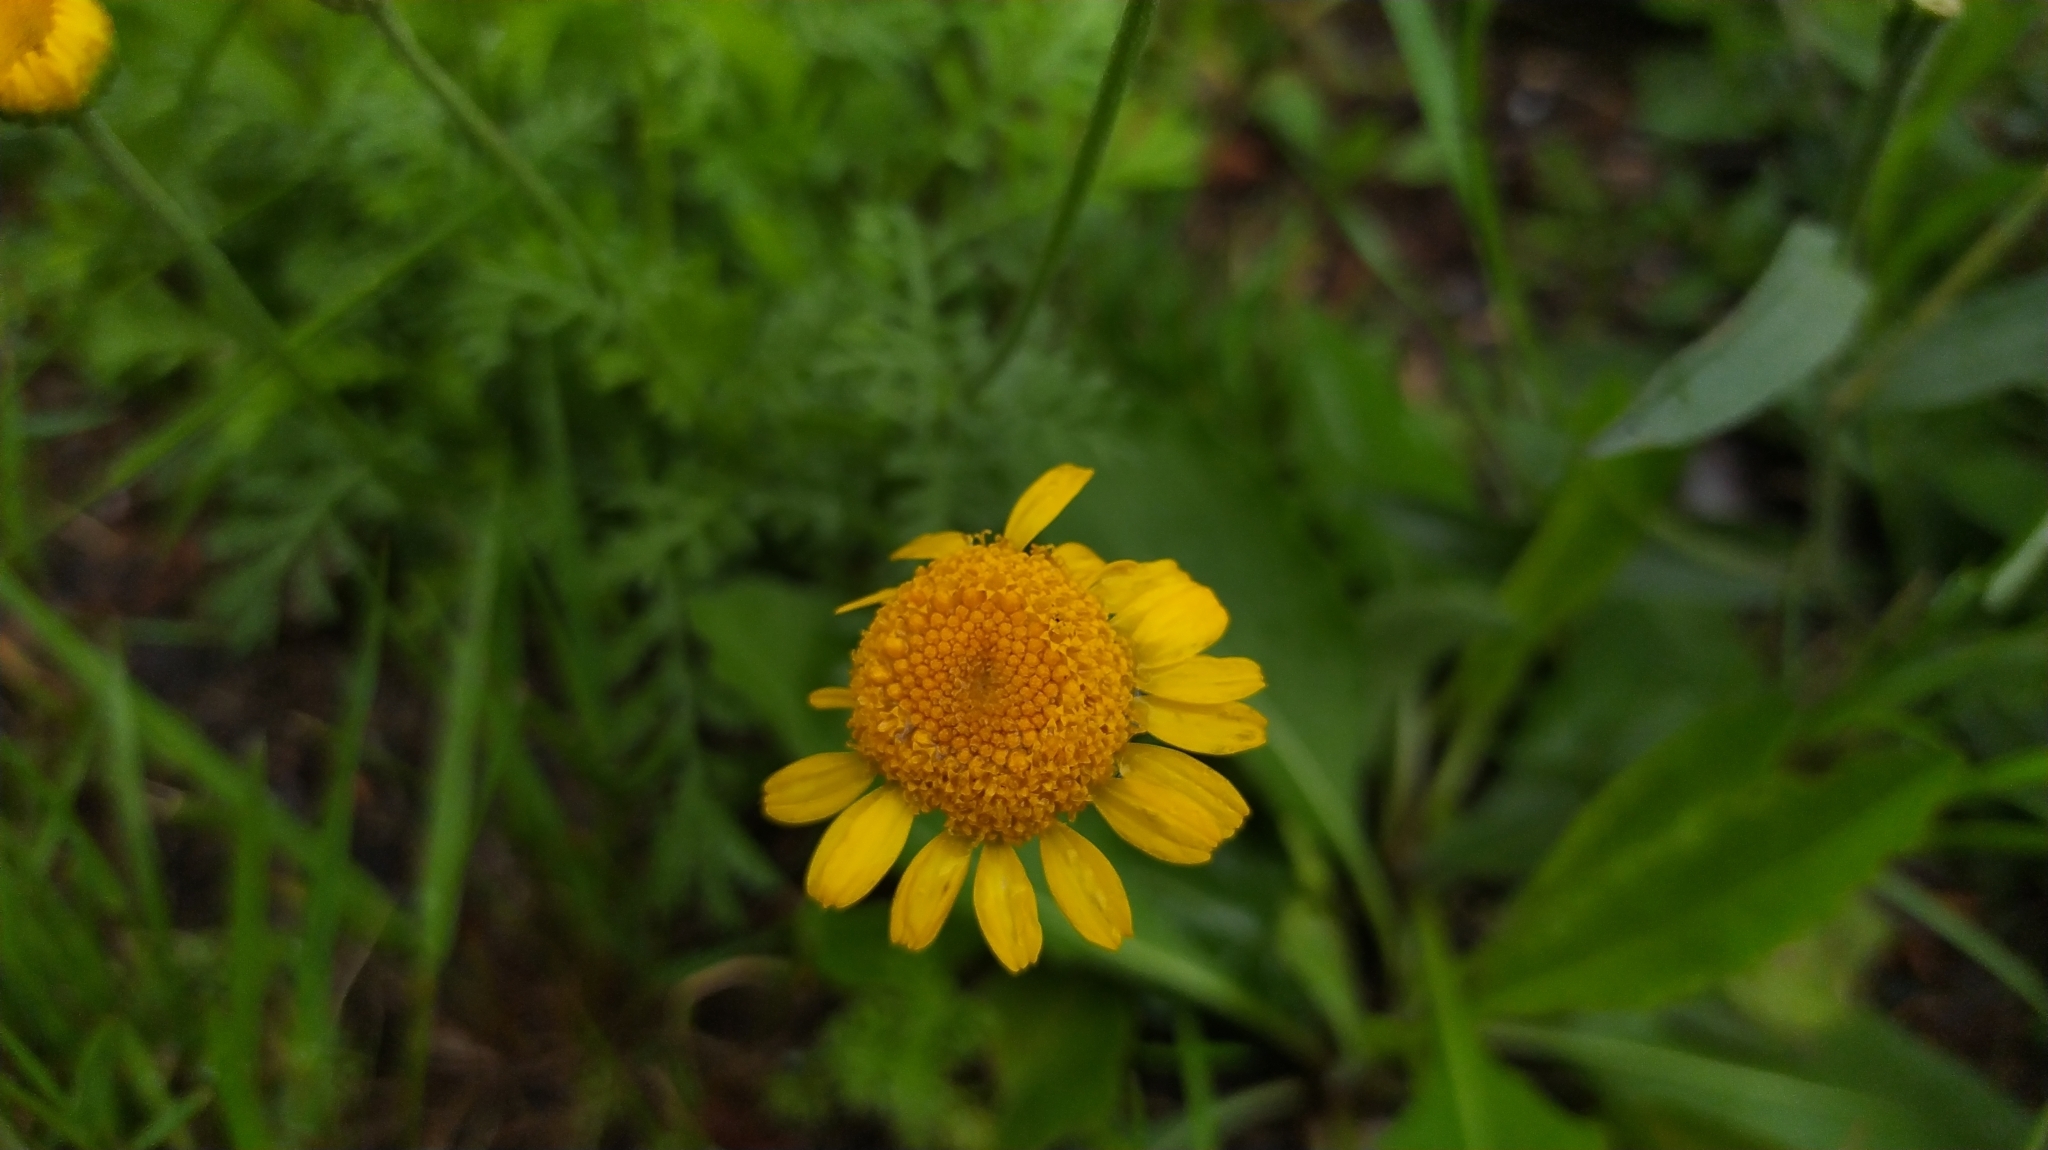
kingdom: Plantae
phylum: Tracheophyta
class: Magnoliopsida
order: Asterales
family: Asteraceae
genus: Cota
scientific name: Cota tinctoria
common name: Golden chamomile
